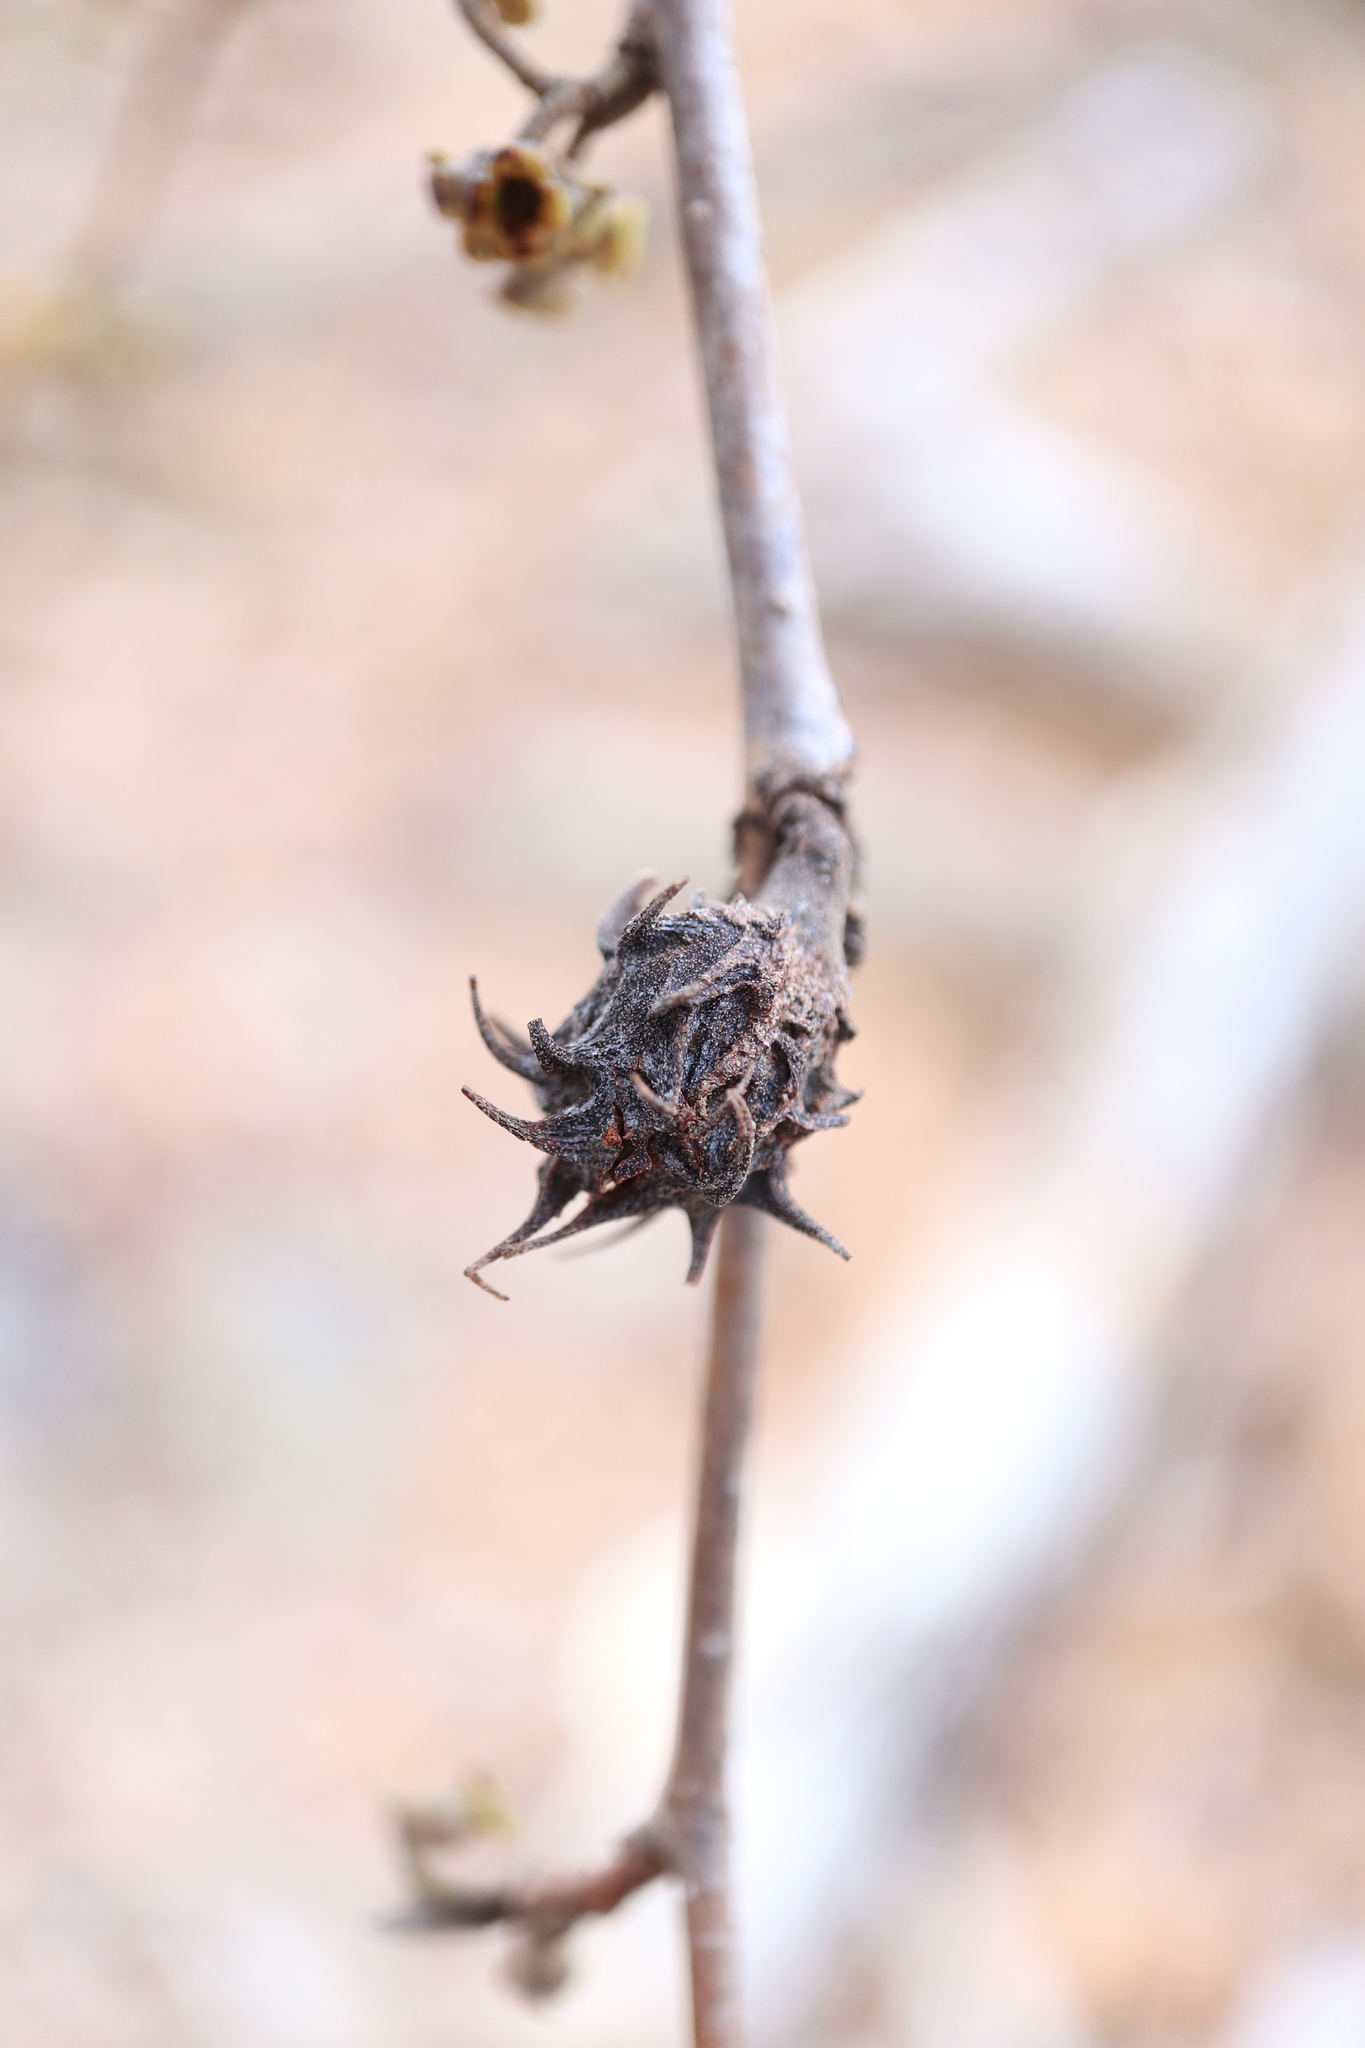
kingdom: Animalia
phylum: Arthropoda
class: Insecta
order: Hemiptera
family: Aphididae
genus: Hamamelistes
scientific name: Hamamelistes spinosus
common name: Witch hazel gall aphid
